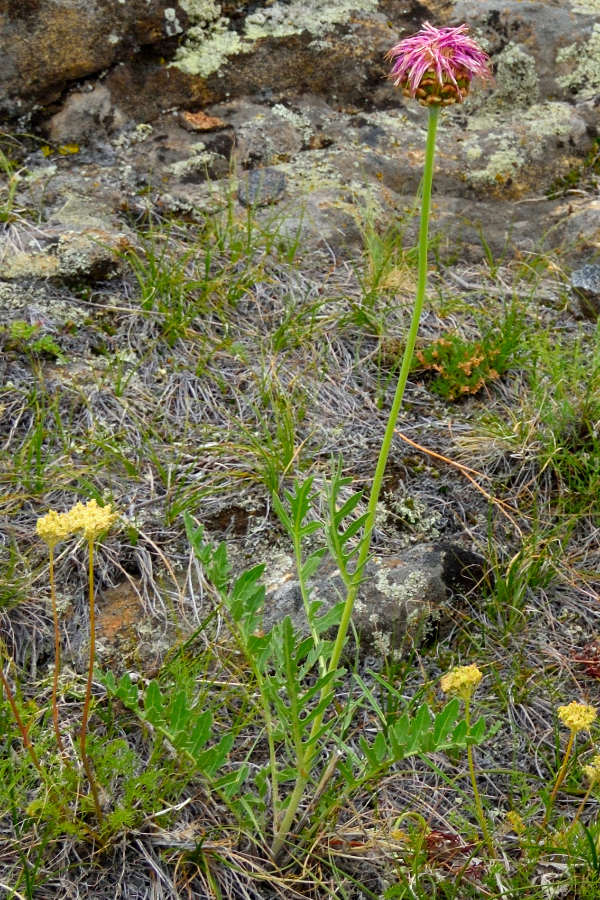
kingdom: Plantae
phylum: Tracheophyta
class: Magnoliopsida
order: Asterales
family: Asteraceae
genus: Leuzea
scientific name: Leuzea uniflora
